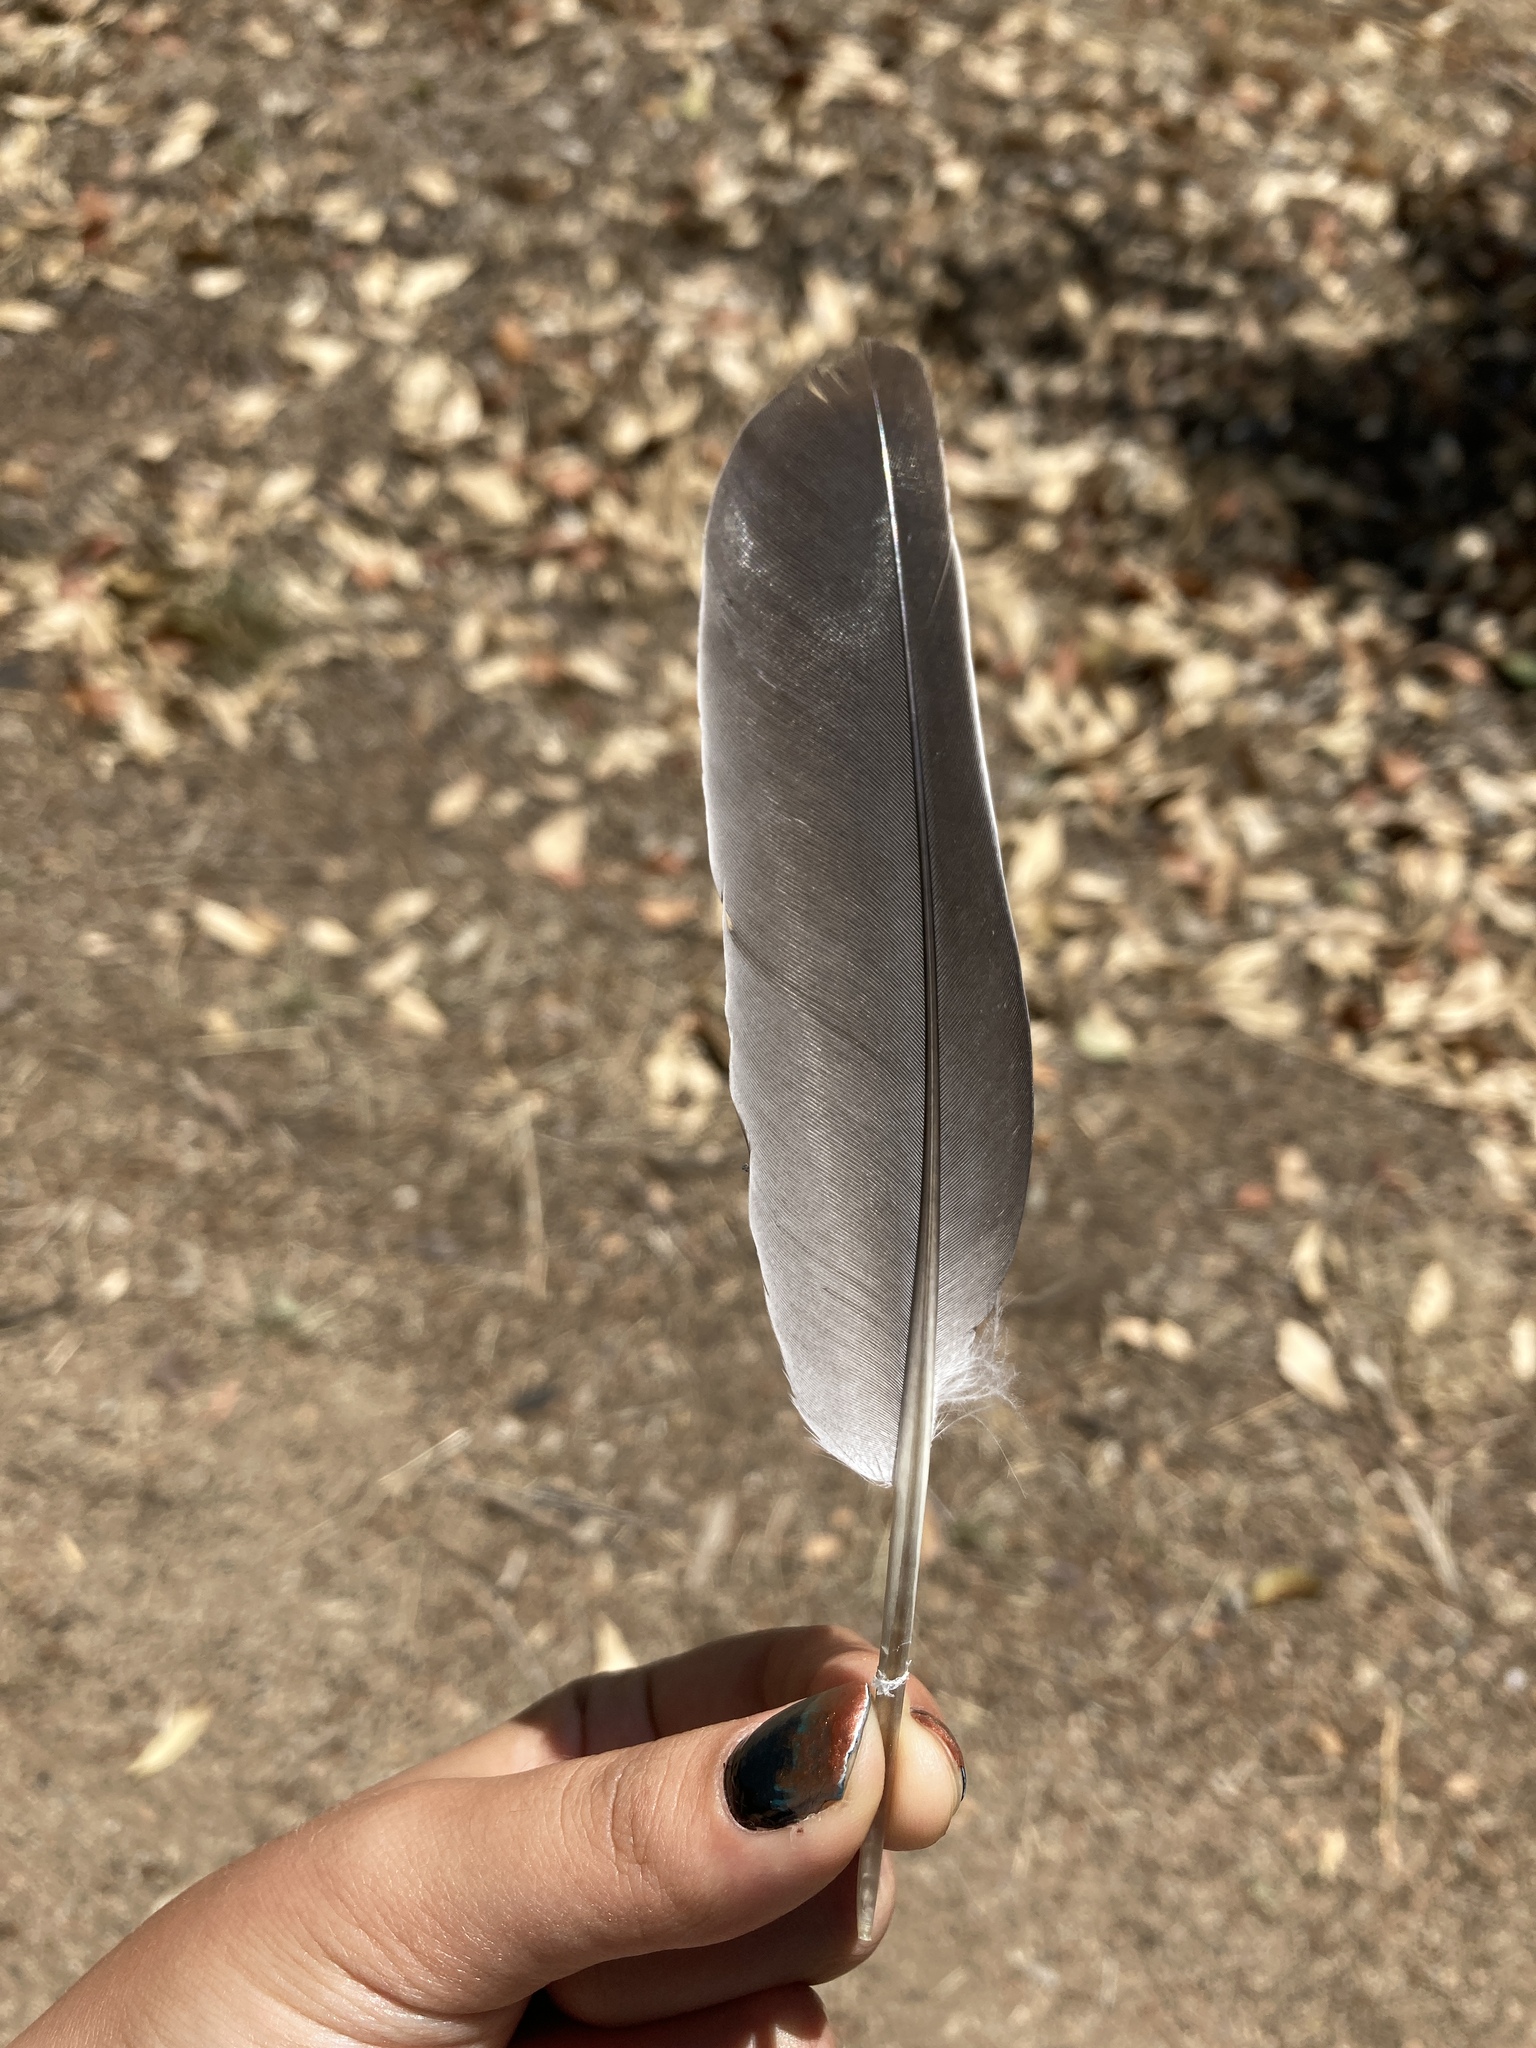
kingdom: Animalia
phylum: Chordata
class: Aves
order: Columbiformes
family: Columbidae
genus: Columba
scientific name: Columba palumbus
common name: Common wood pigeon
